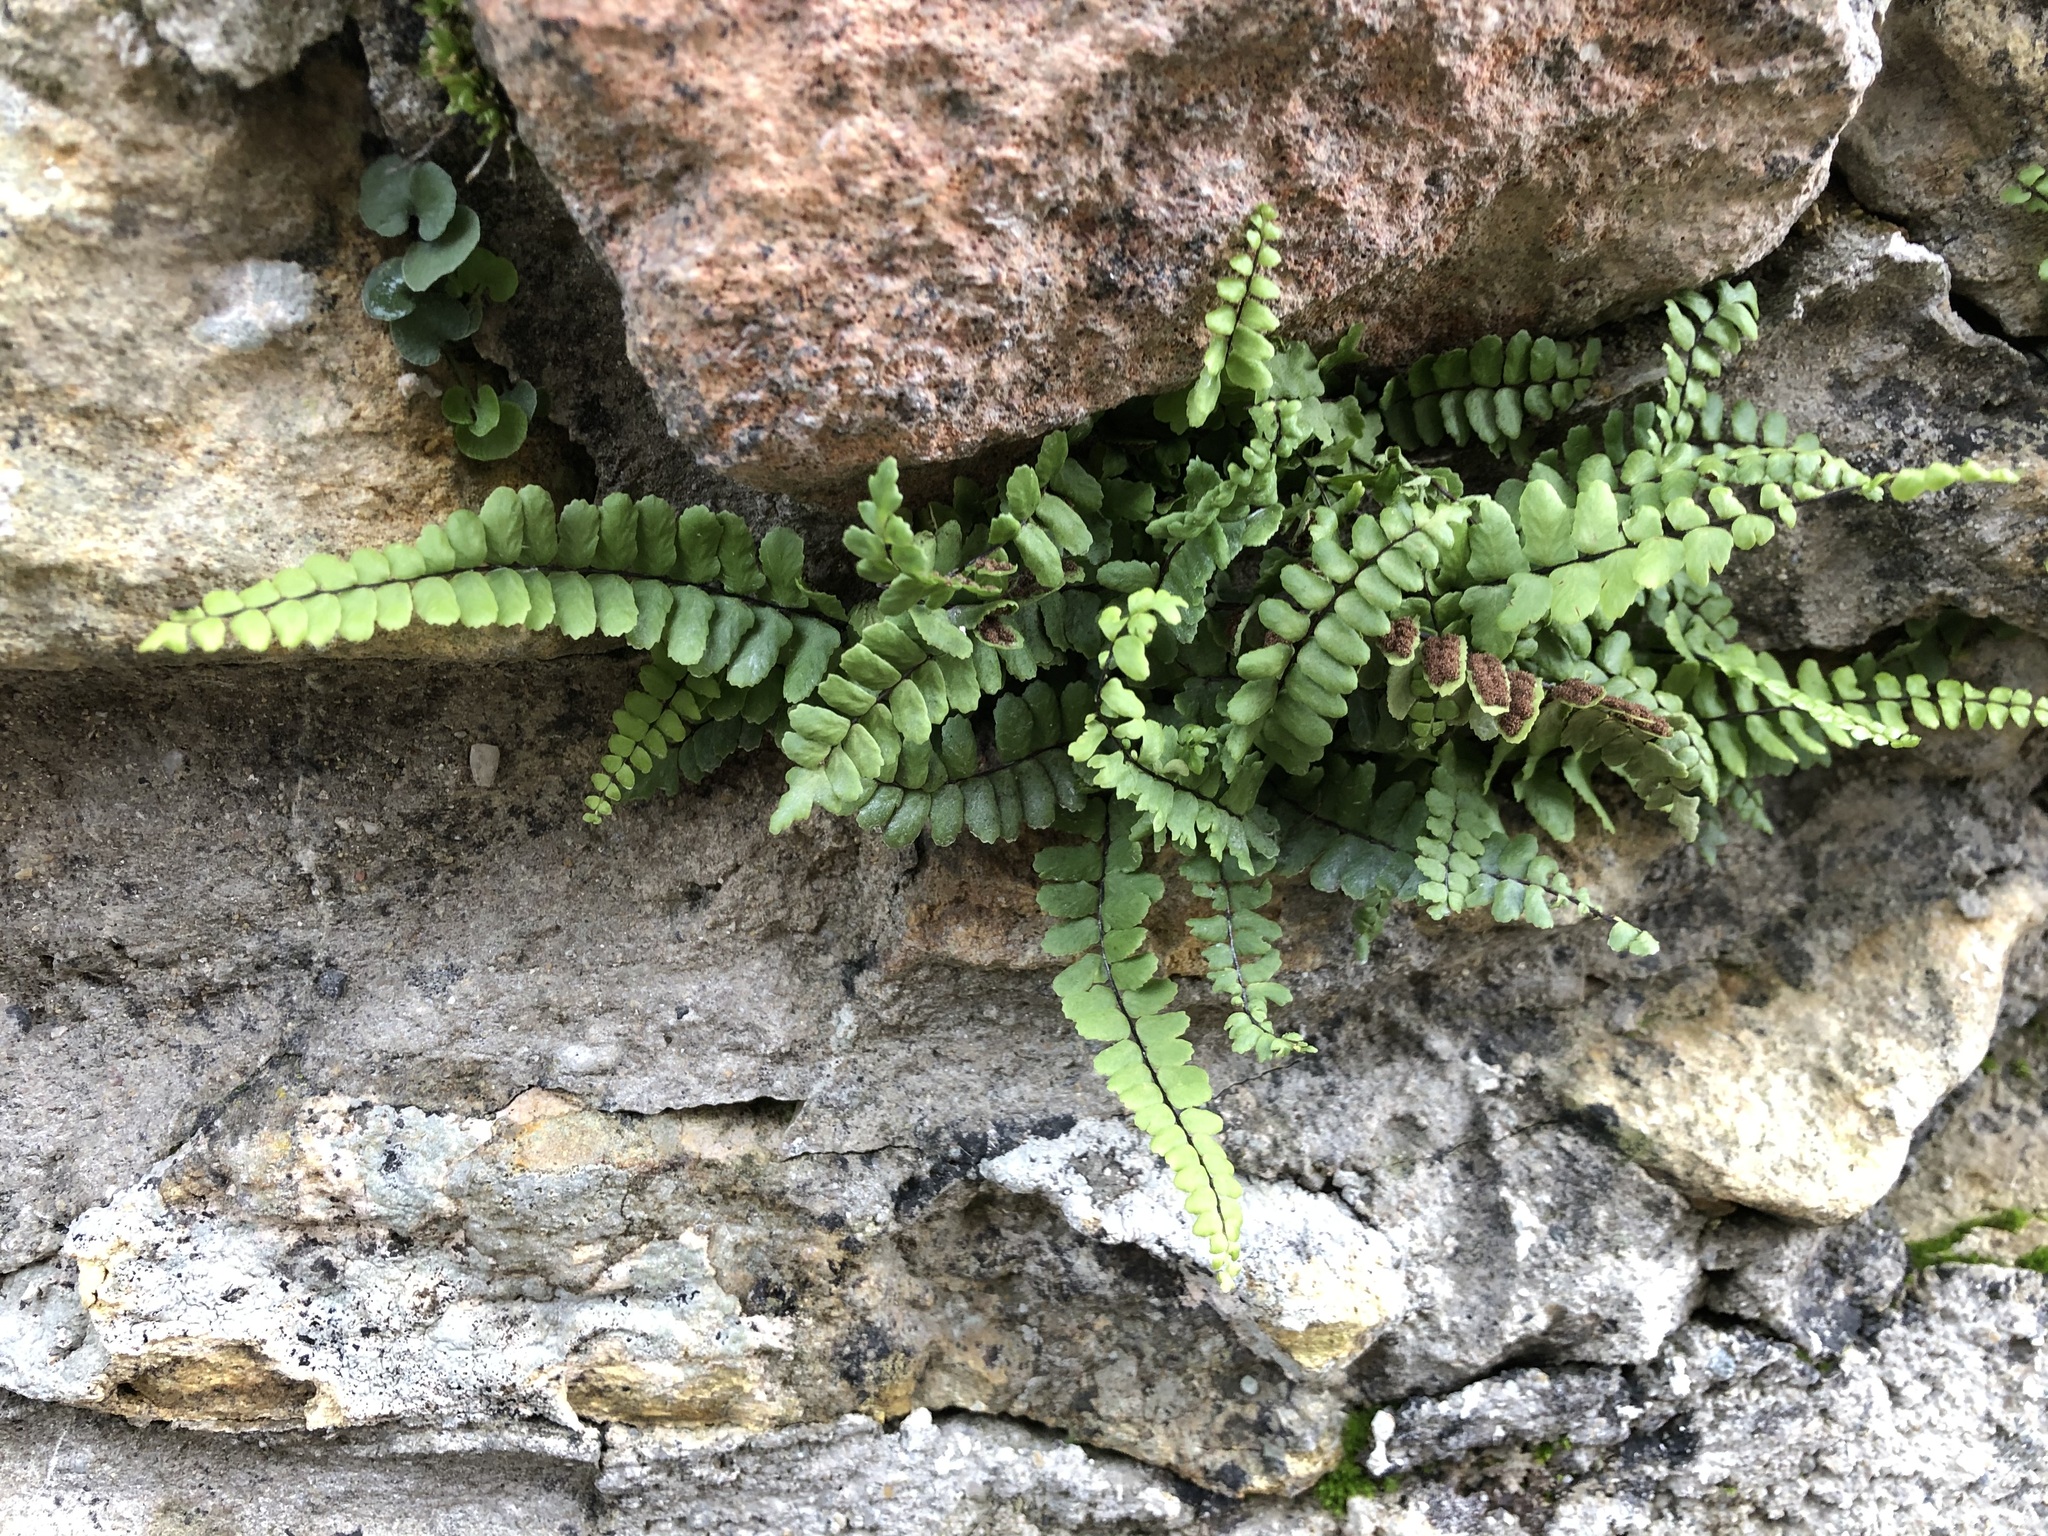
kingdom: Plantae
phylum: Tracheophyta
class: Polypodiopsida
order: Polypodiales
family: Aspleniaceae
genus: Asplenium
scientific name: Asplenium trichomanes
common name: Maidenhair spleenwort
